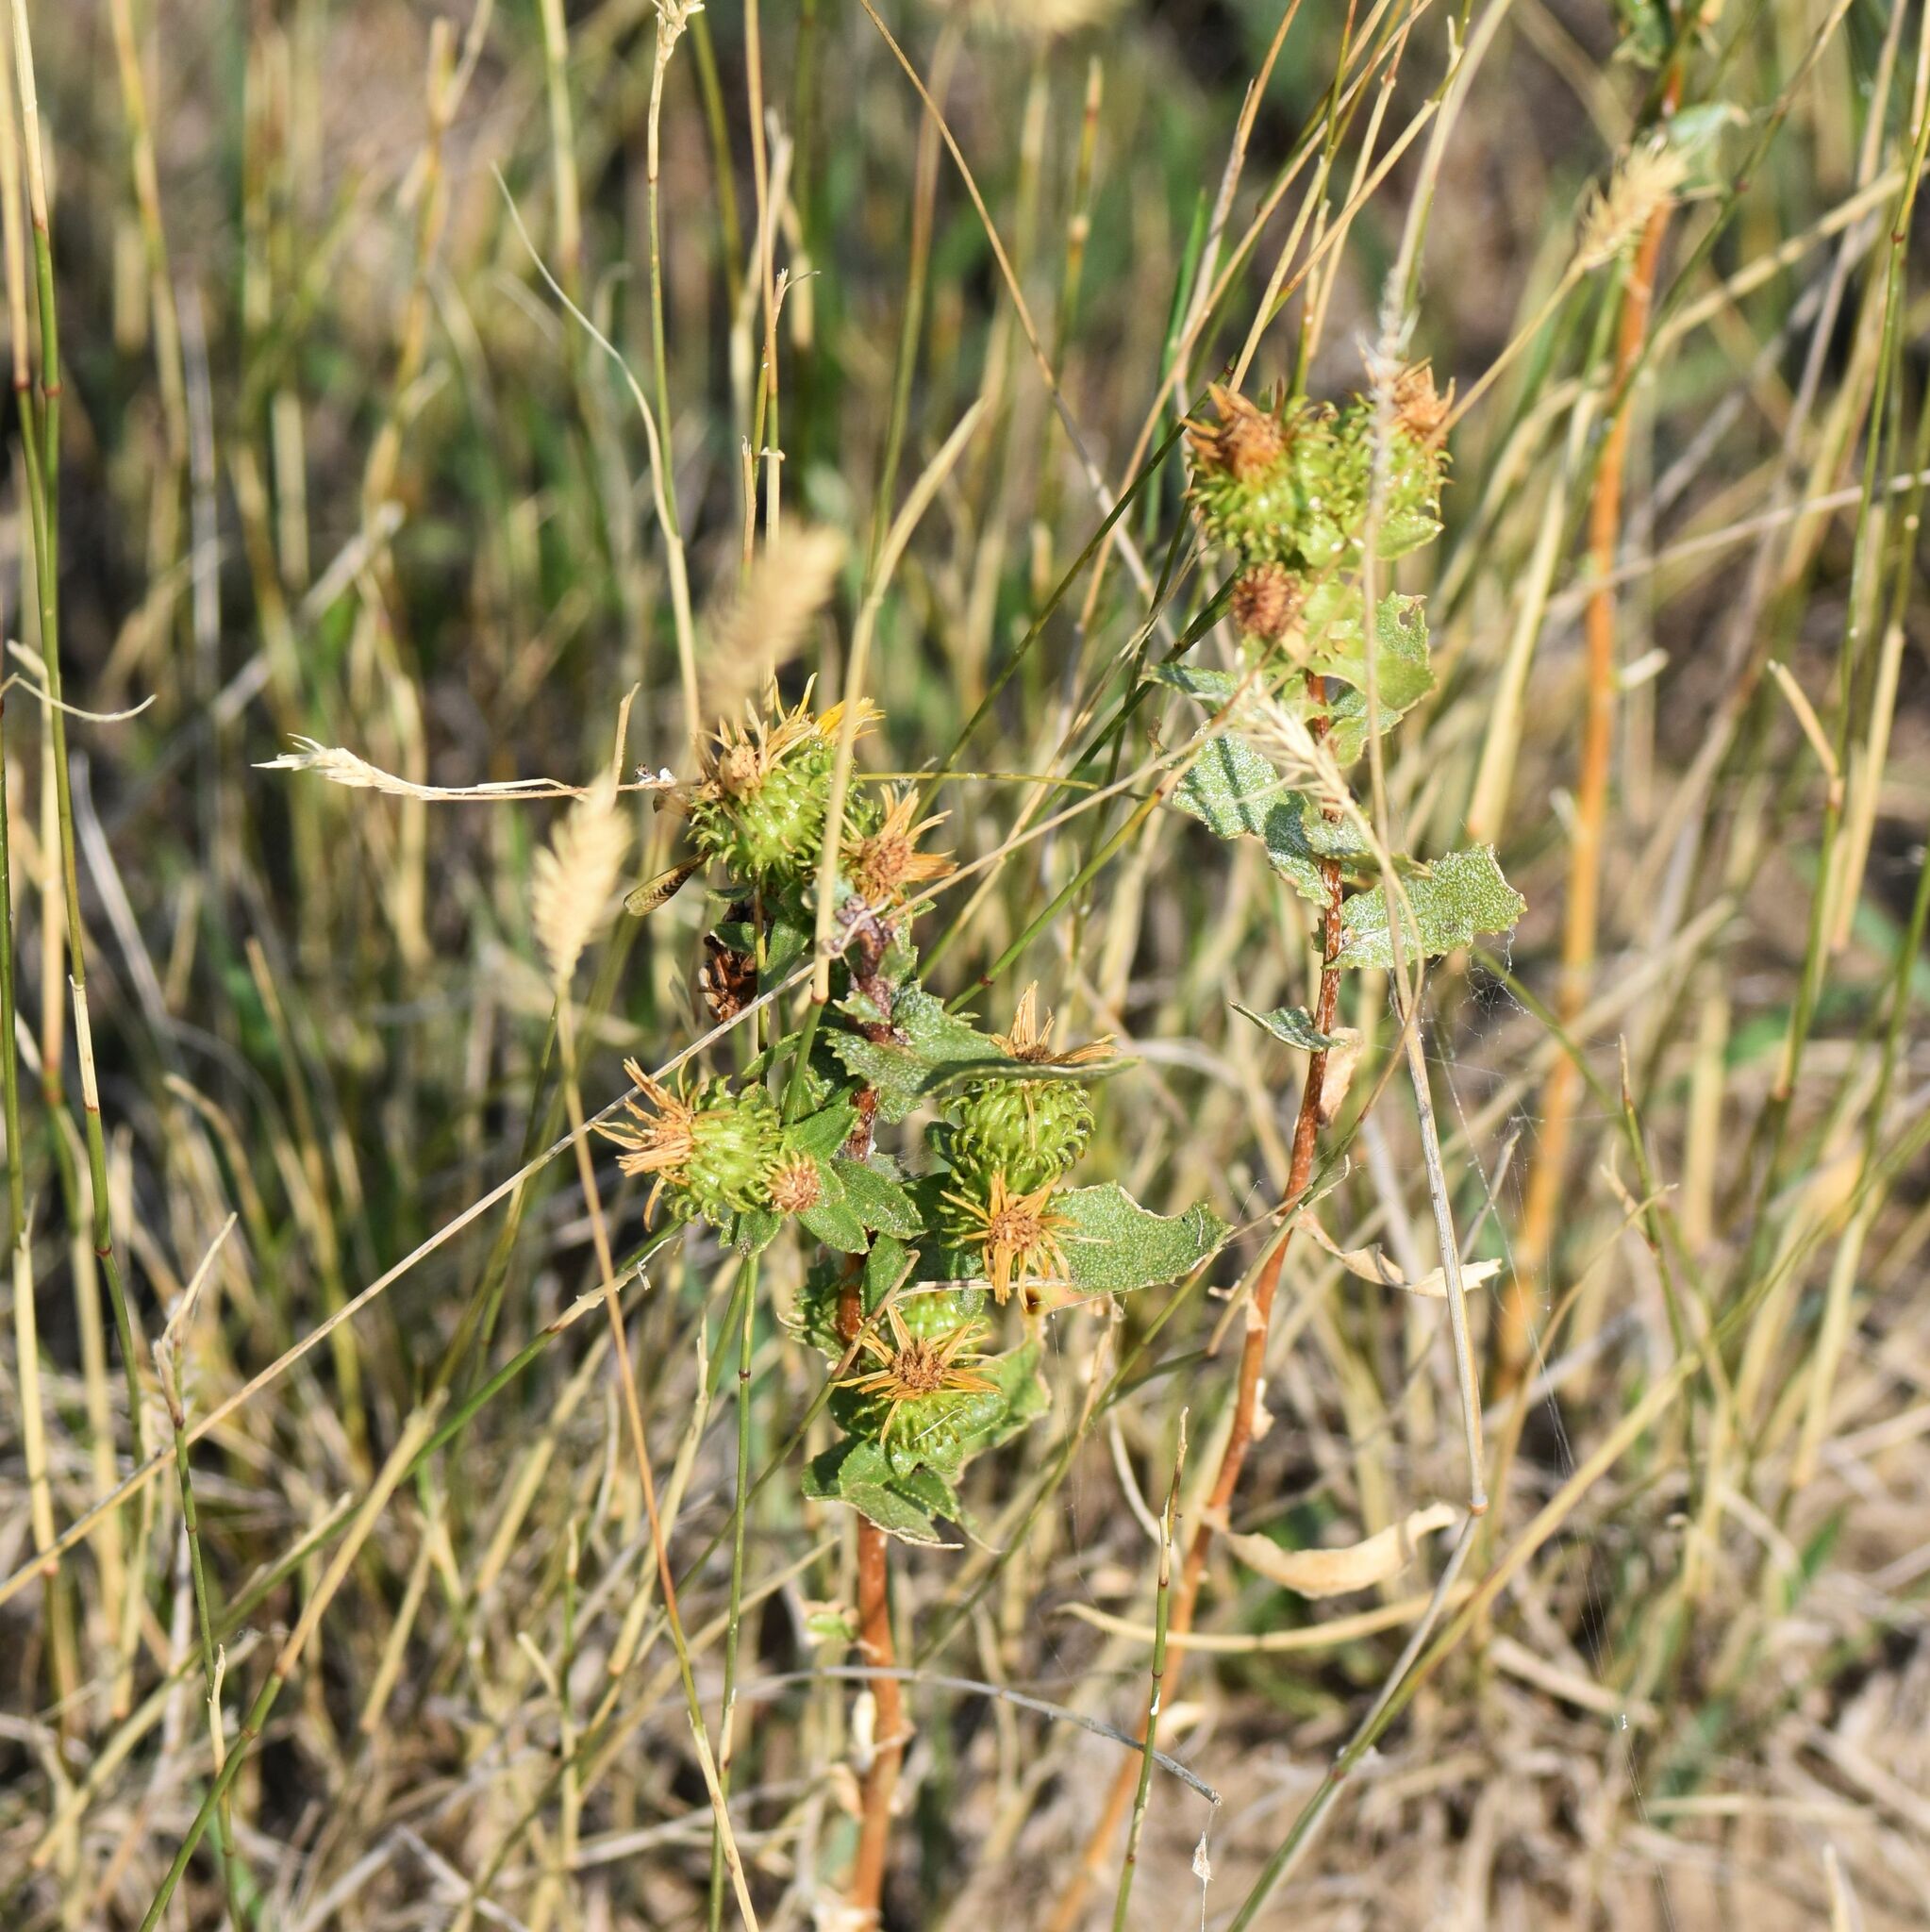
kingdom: Plantae
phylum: Tracheophyta
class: Magnoliopsida
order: Asterales
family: Asteraceae
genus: Grindelia
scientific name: Grindelia squarrosa
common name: Curly-cup gumweed
